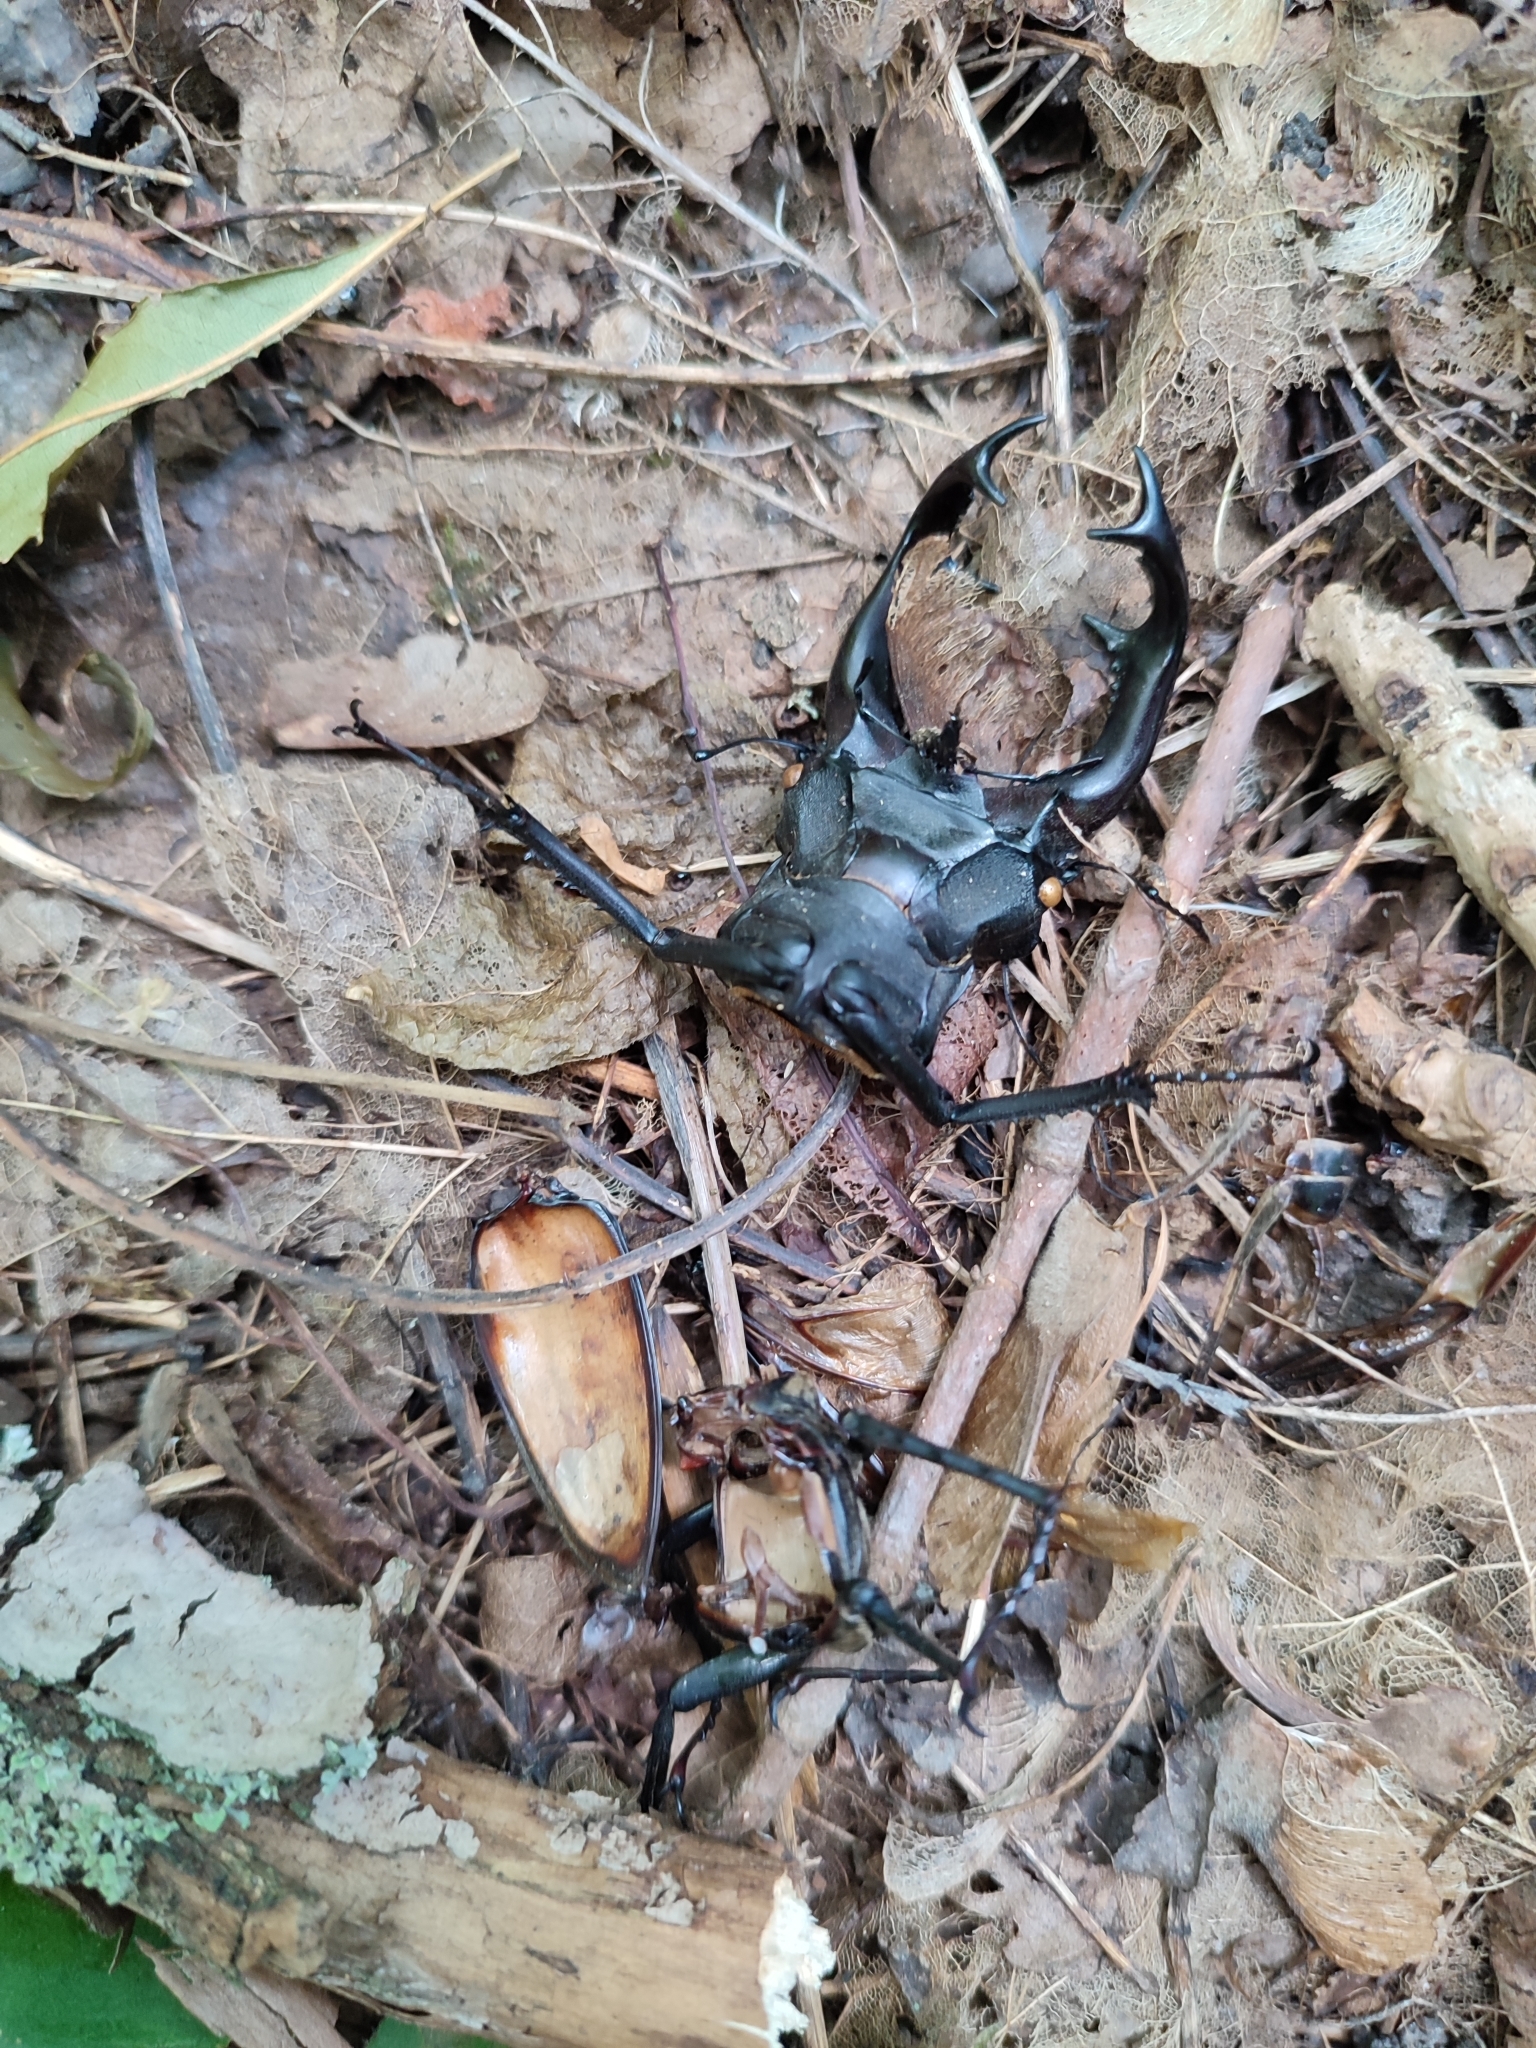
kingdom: Animalia
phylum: Arthropoda
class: Insecta
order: Coleoptera
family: Lucanidae
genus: Lucanus
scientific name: Lucanus cervus
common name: Stag beetle
